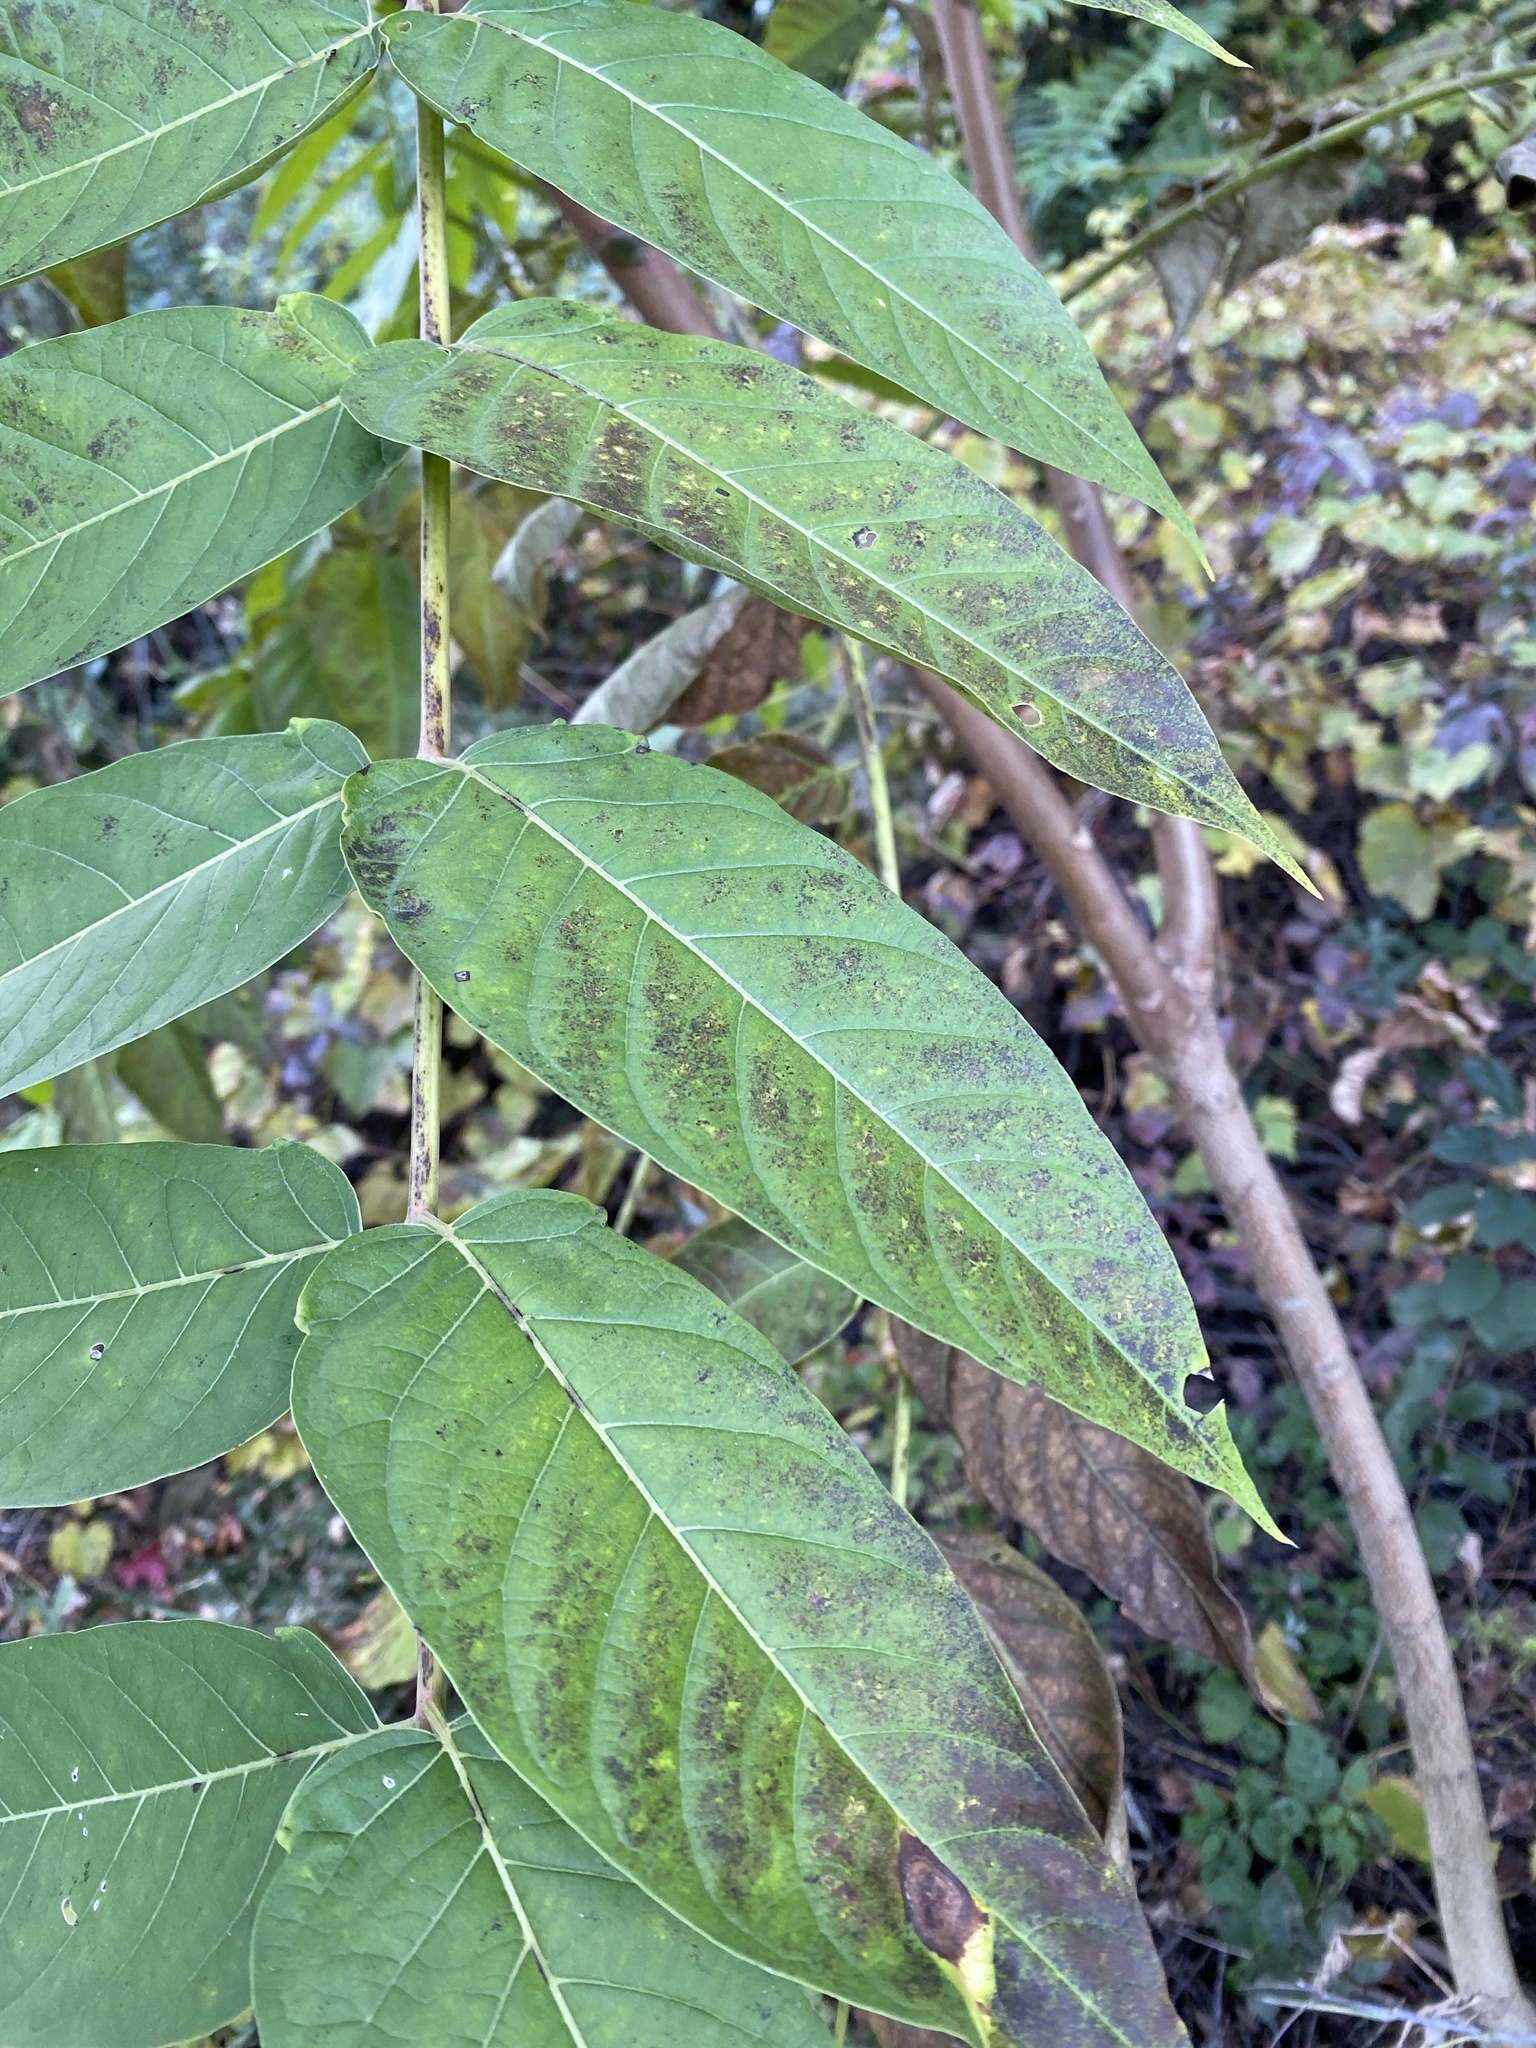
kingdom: Plantae
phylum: Tracheophyta
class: Magnoliopsida
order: Sapindales
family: Simaroubaceae
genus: Ailanthus
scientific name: Ailanthus altissima
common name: Tree-of-heaven
